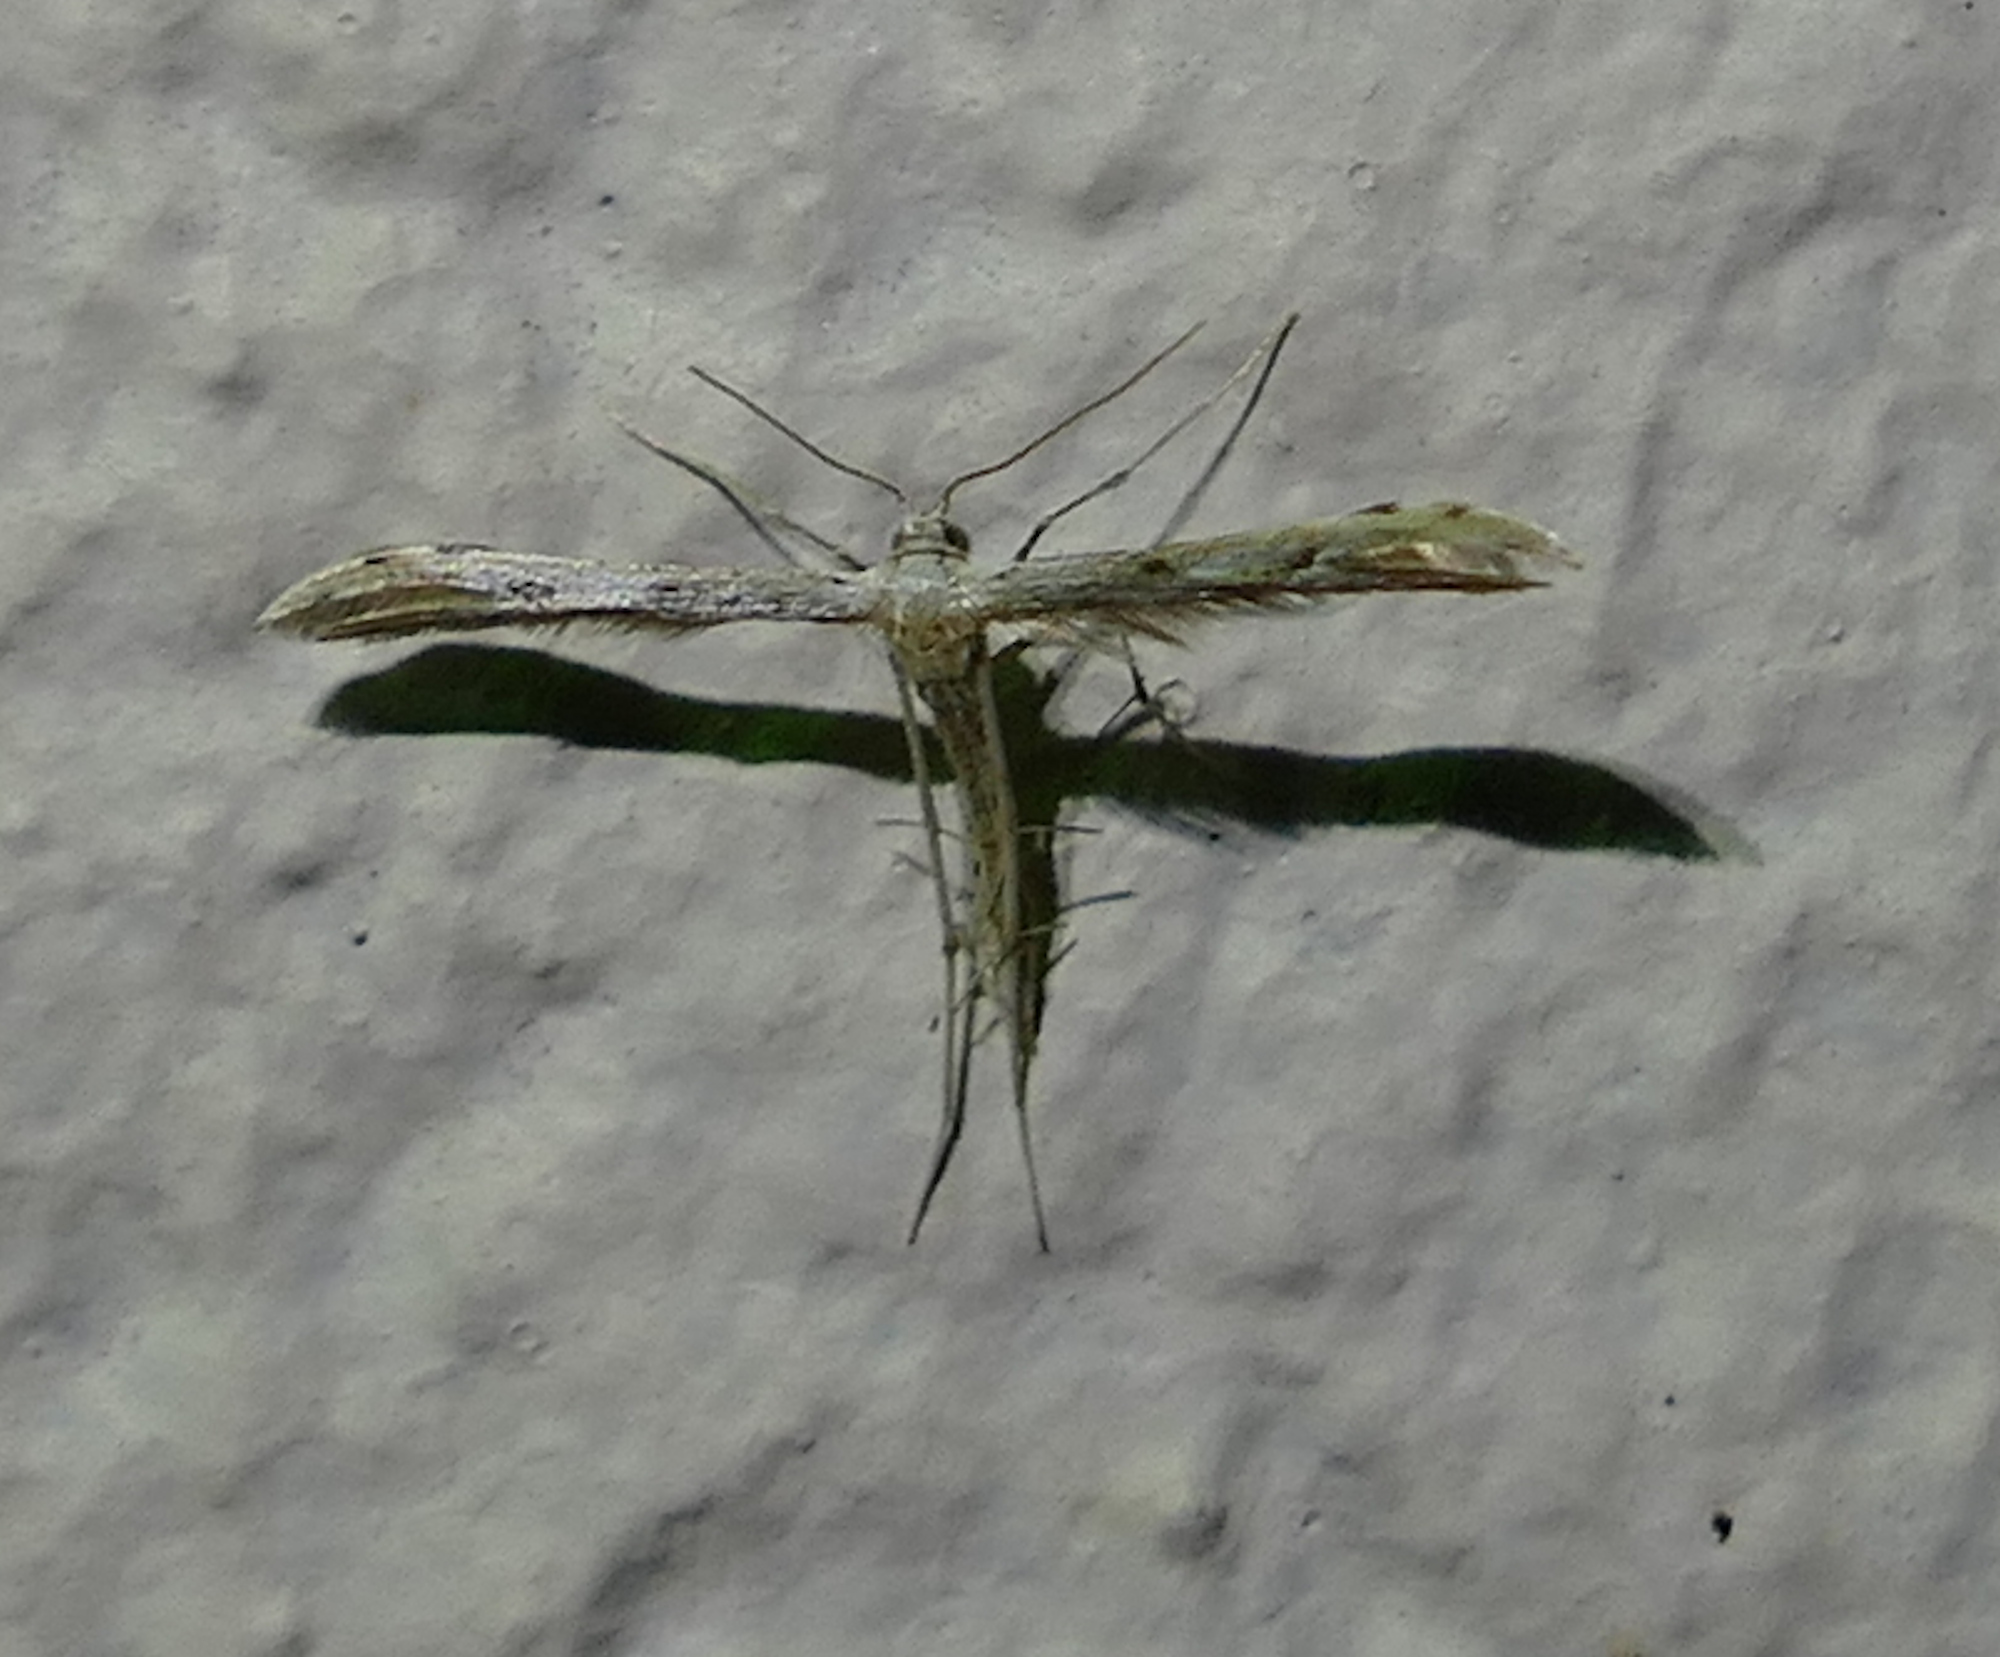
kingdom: Animalia
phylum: Arthropoda
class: Insecta
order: Lepidoptera
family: Pterophoridae
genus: Pselnophorus
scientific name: Pselnophorus belfragei
